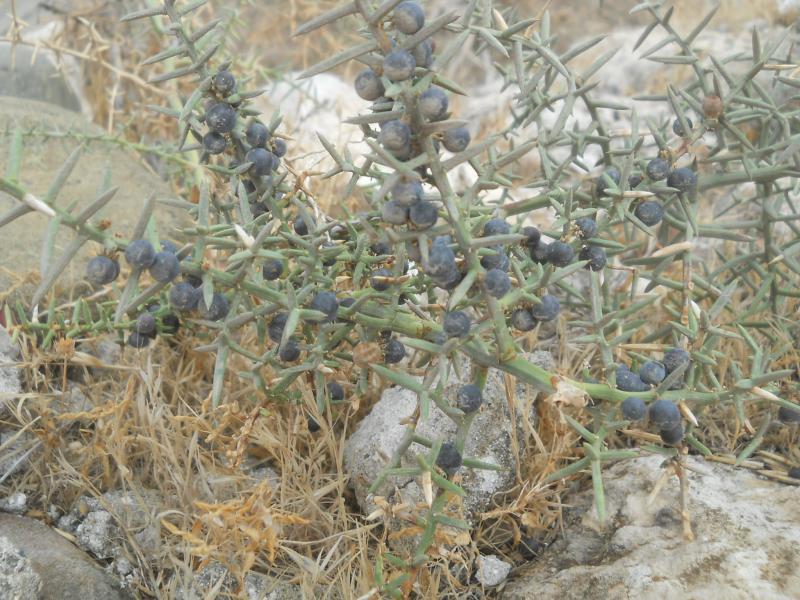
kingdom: Plantae
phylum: Tracheophyta
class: Liliopsida
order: Asparagales
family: Asparagaceae
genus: Asparagus
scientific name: Asparagus horridus
